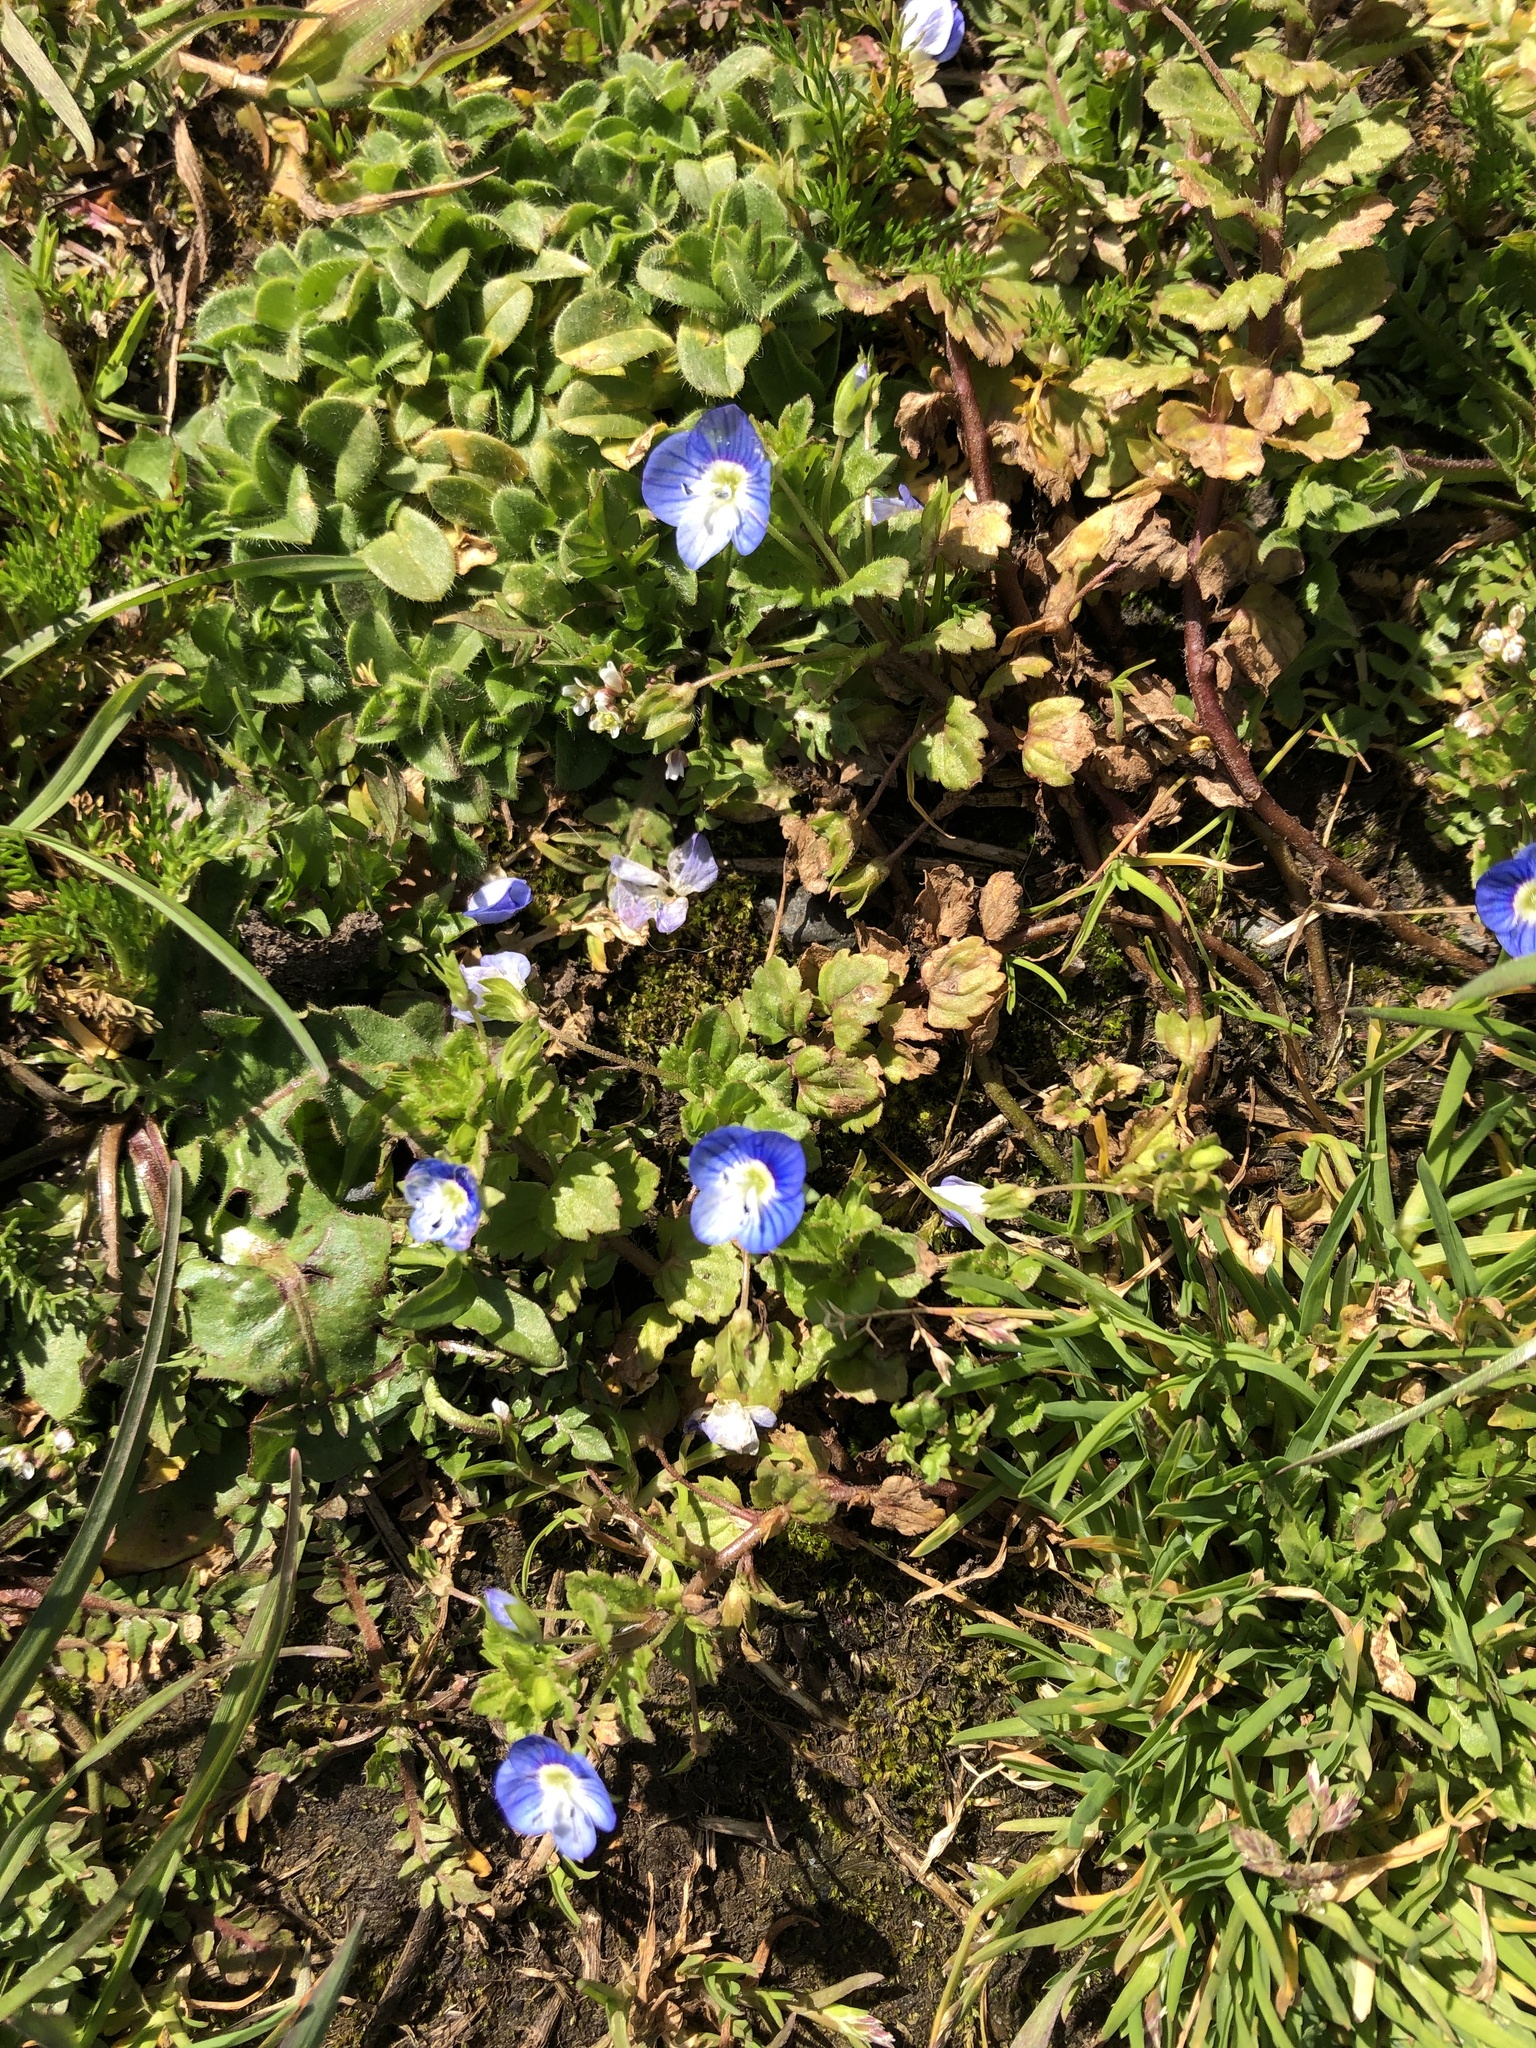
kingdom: Plantae
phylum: Tracheophyta
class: Magnoliopsida
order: Lamiales
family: Plantaginaceae
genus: Veronica
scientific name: Veronica persica
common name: Common field-speedwell
